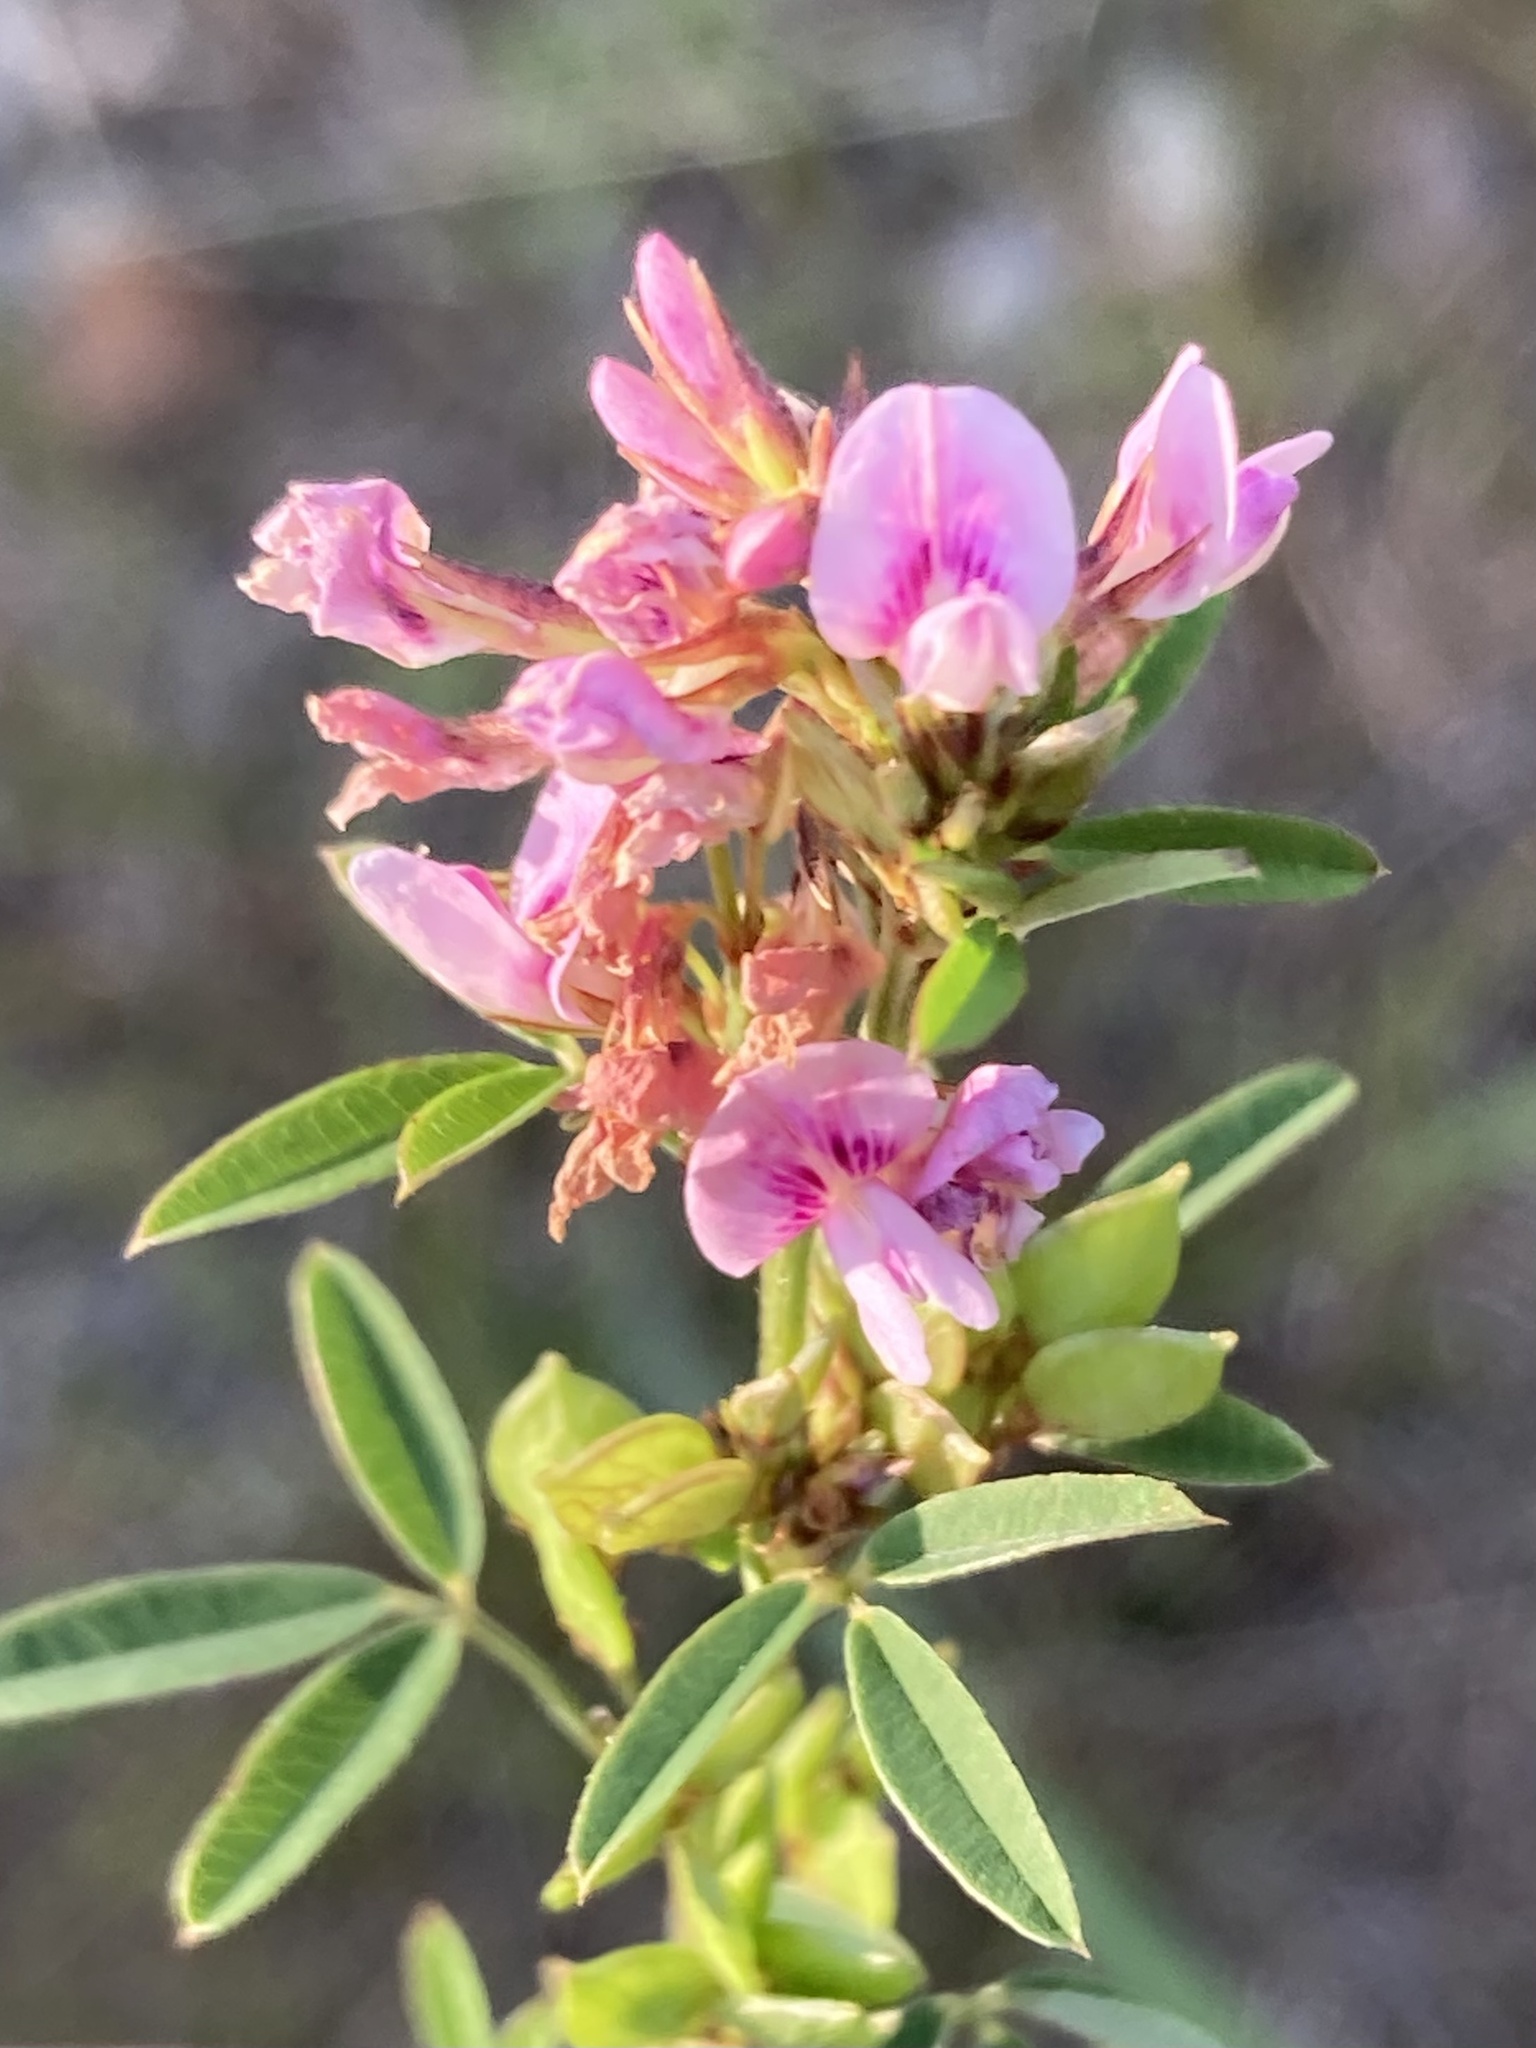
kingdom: Plantae
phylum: Tracheophyta
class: Magnoliopsida
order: Fabales
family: Fabaceae
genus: Lespedeza
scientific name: Lespedeza virginica
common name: Slender bush-clover
